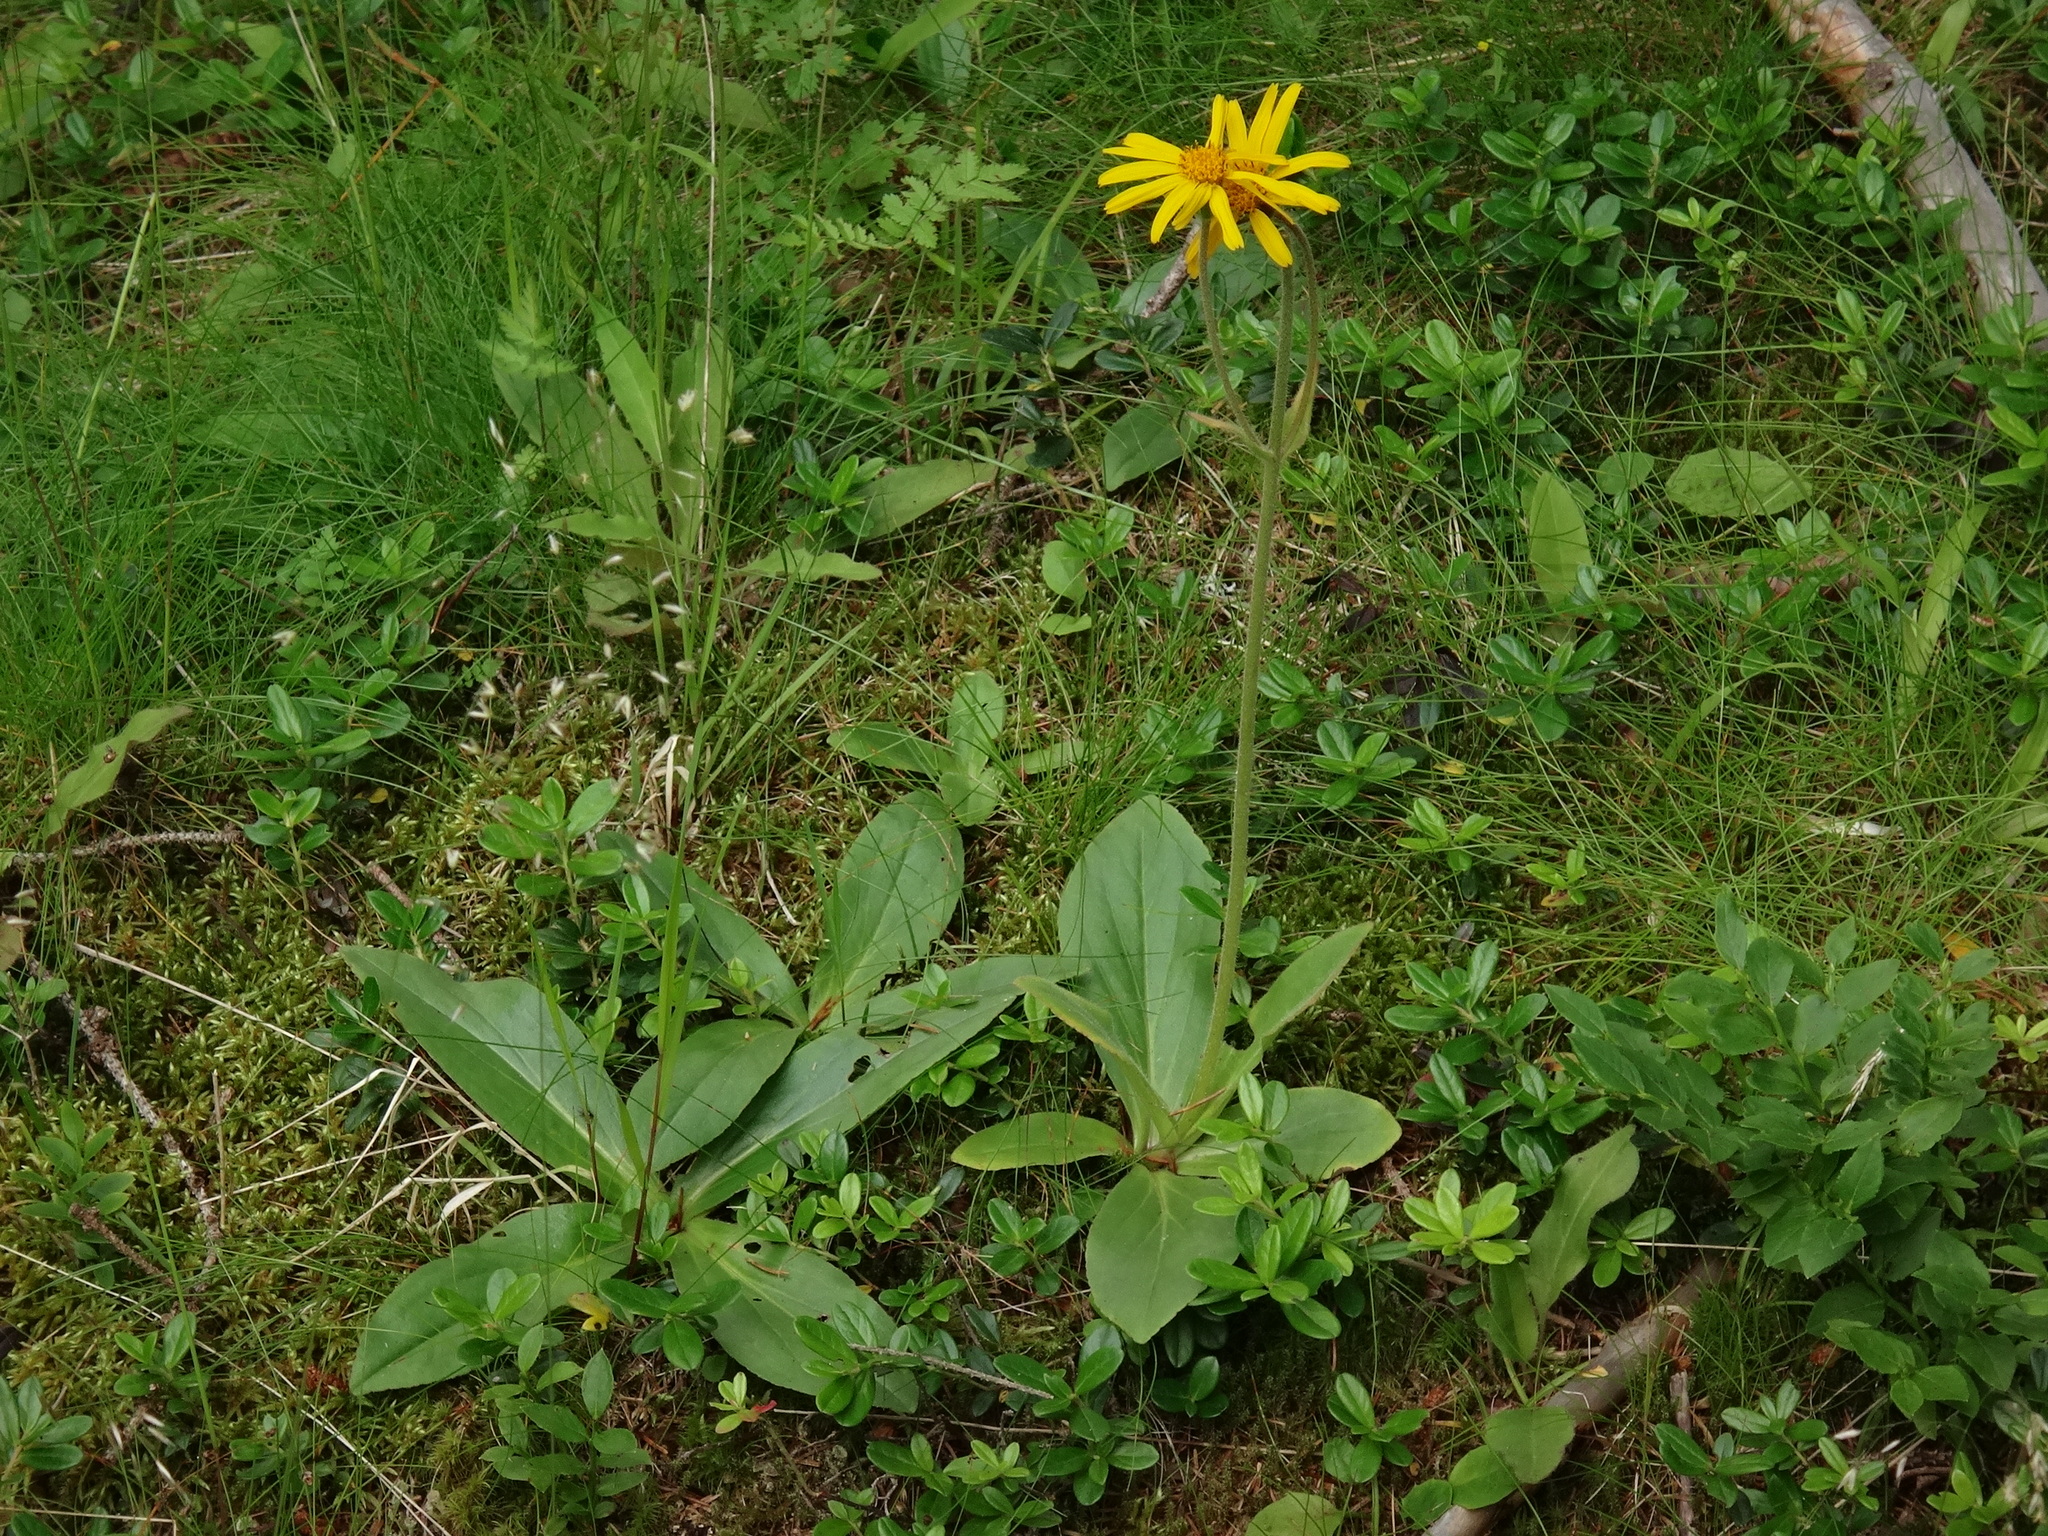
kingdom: Plantae
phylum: Tracheophyta
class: Magnoliopsida
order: Asterales
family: Asteraceae
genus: Arnica
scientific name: Arnica montana
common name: Leopard's bane
